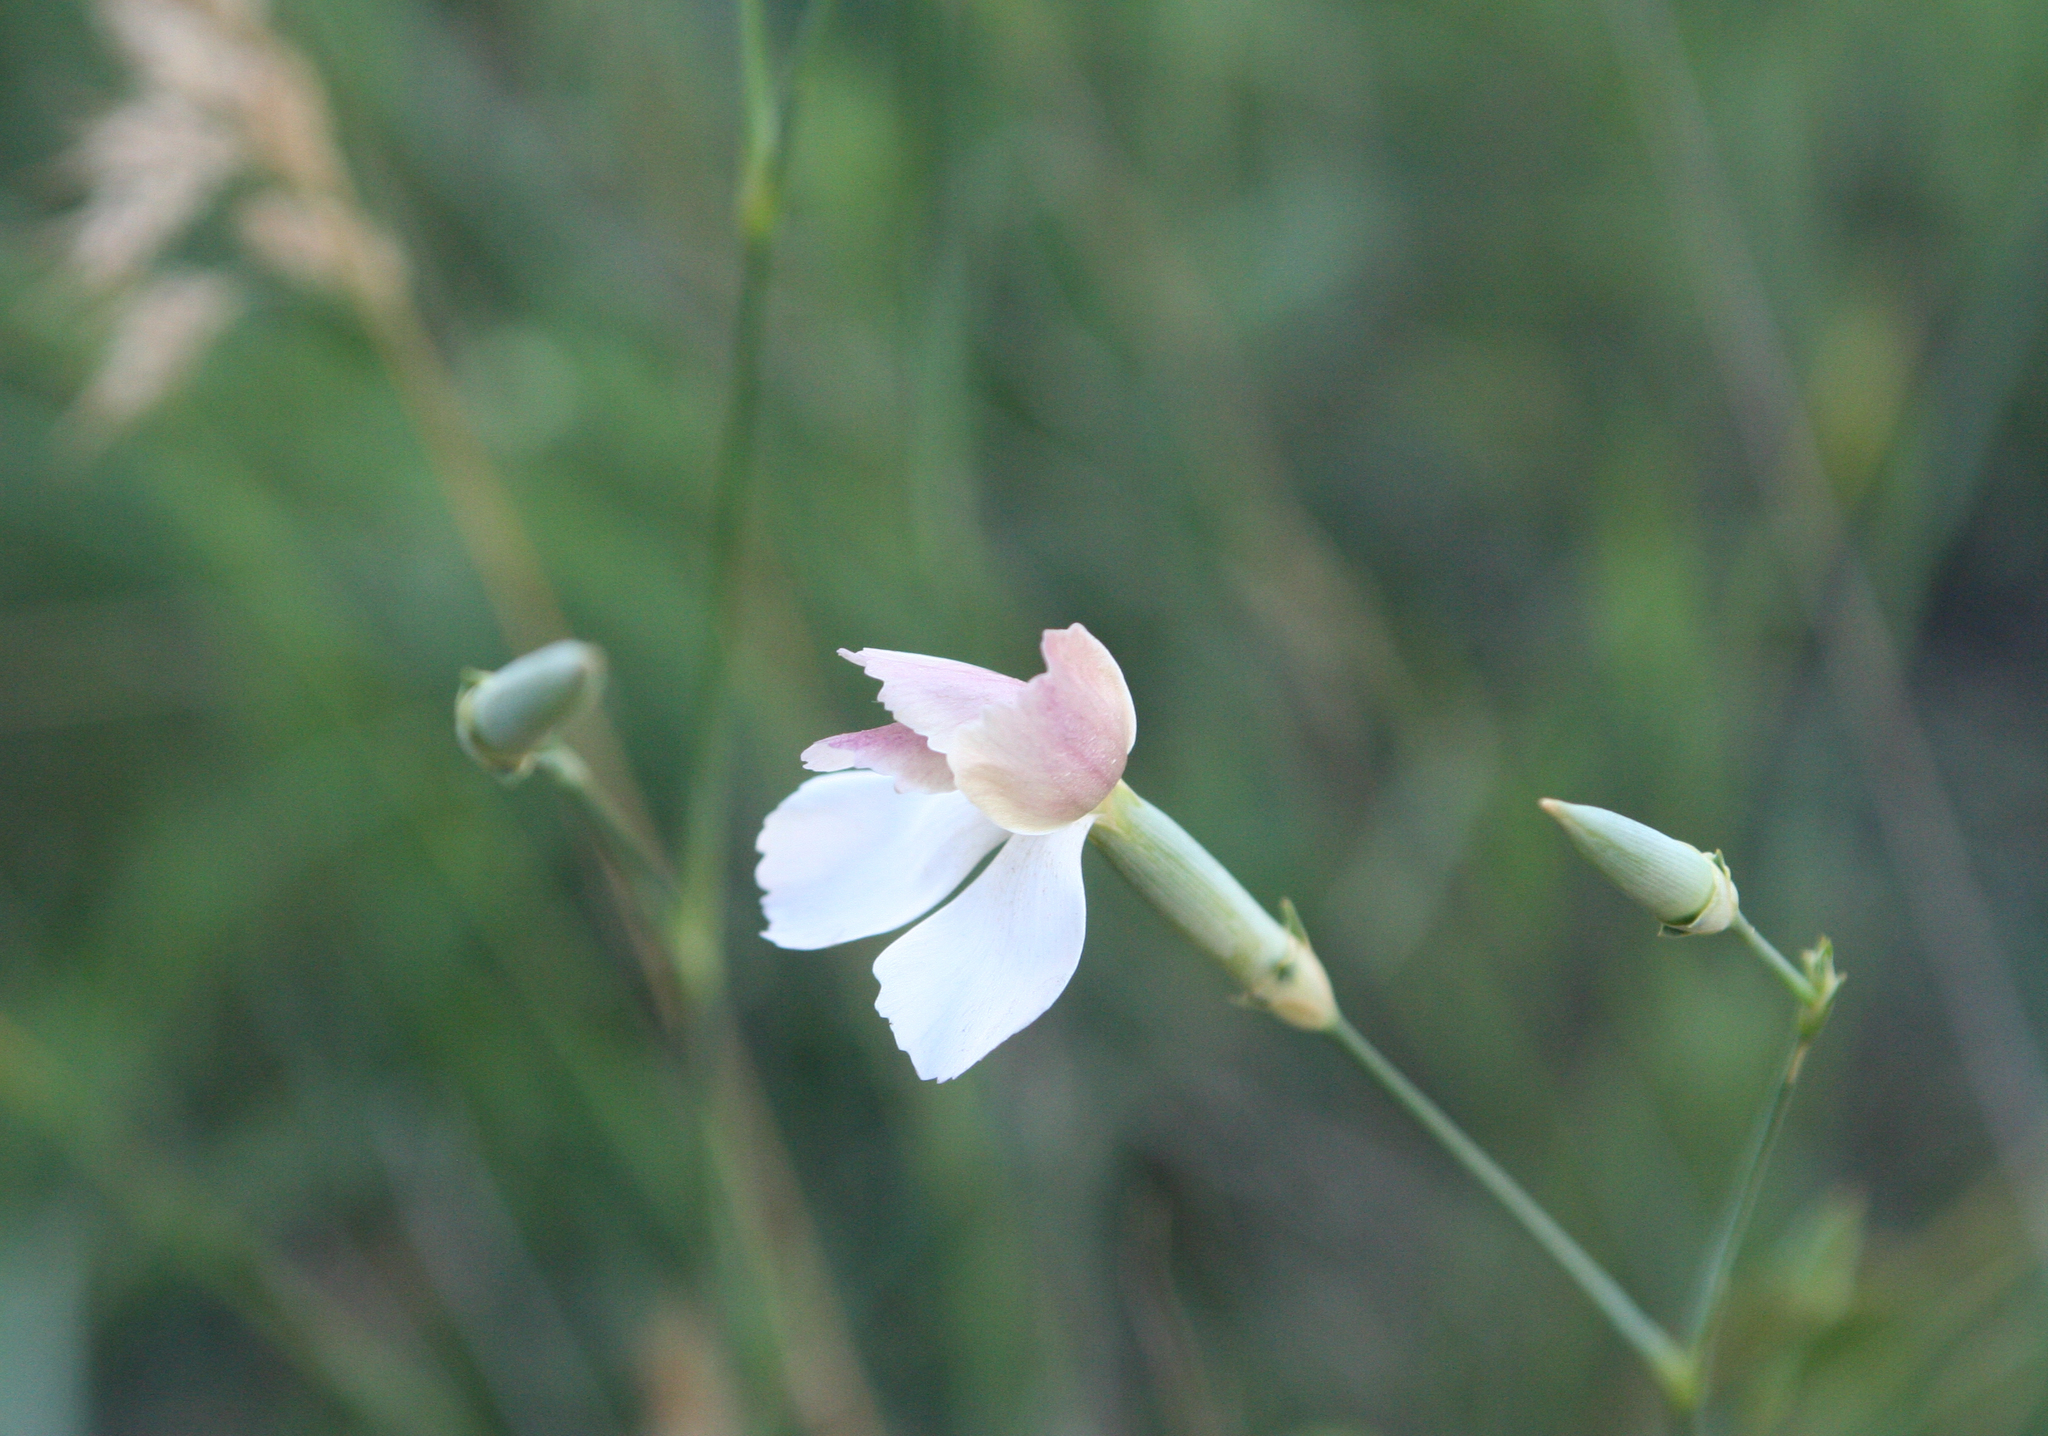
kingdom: Plantae
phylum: Tracheophyta
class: Magnoliopsida
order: Caryophyllales
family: Caryophyllaceae
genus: Dianthus
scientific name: Dianthus lanceolatus
